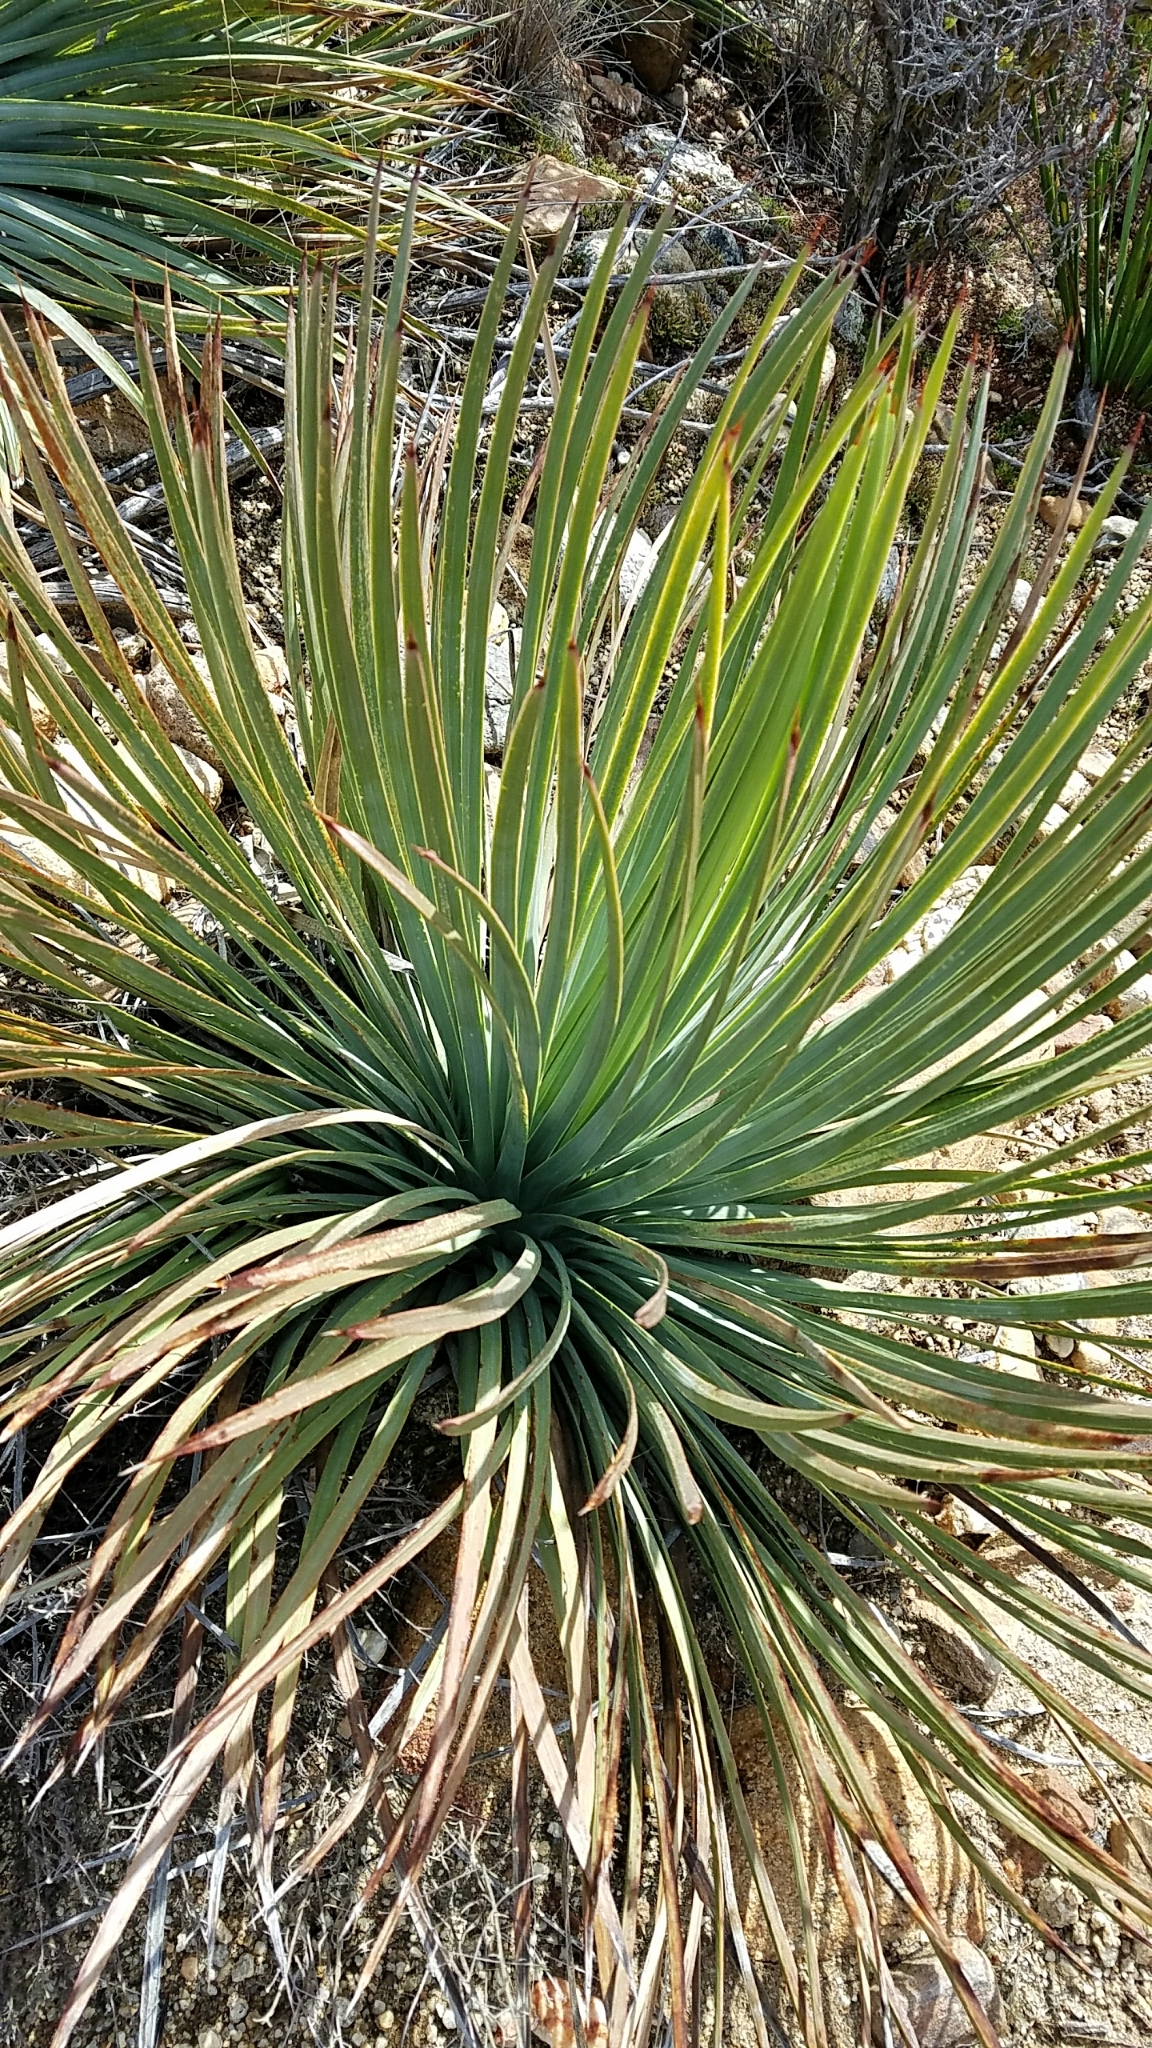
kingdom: Plantae
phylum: Tracheophyta
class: Liliopsida
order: Asparagales
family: Asparagaceae
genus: Hesperoyucca
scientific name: Hesperoyucca whipplei
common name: Our lord's-candle
